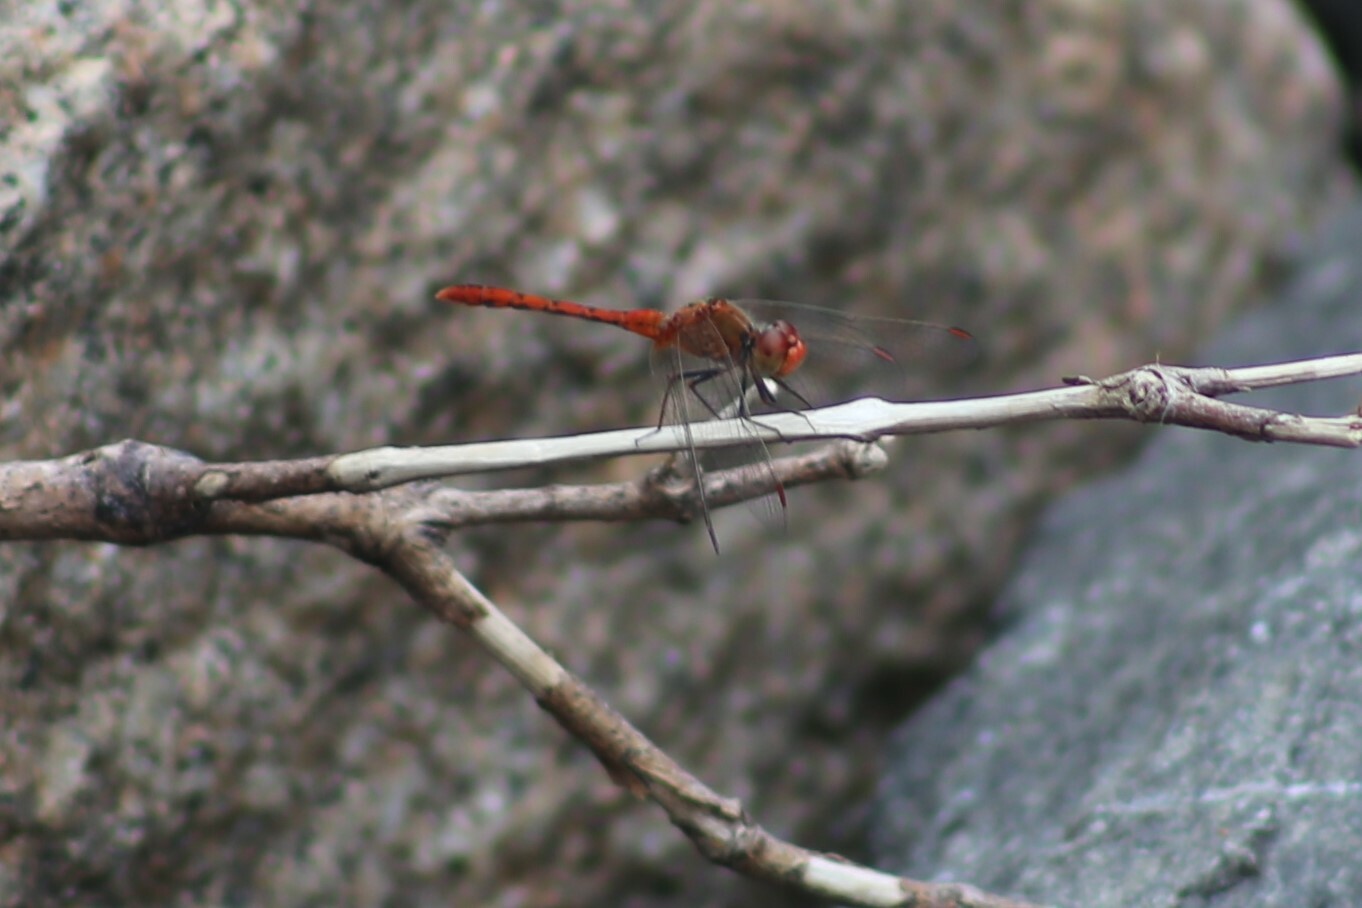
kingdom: Animalia
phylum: Arthropoda
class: Insecta
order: Odonata
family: Libellulidae
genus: Diplacodes
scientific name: Diplacodes bipunctata
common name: Red percher dragonfly
